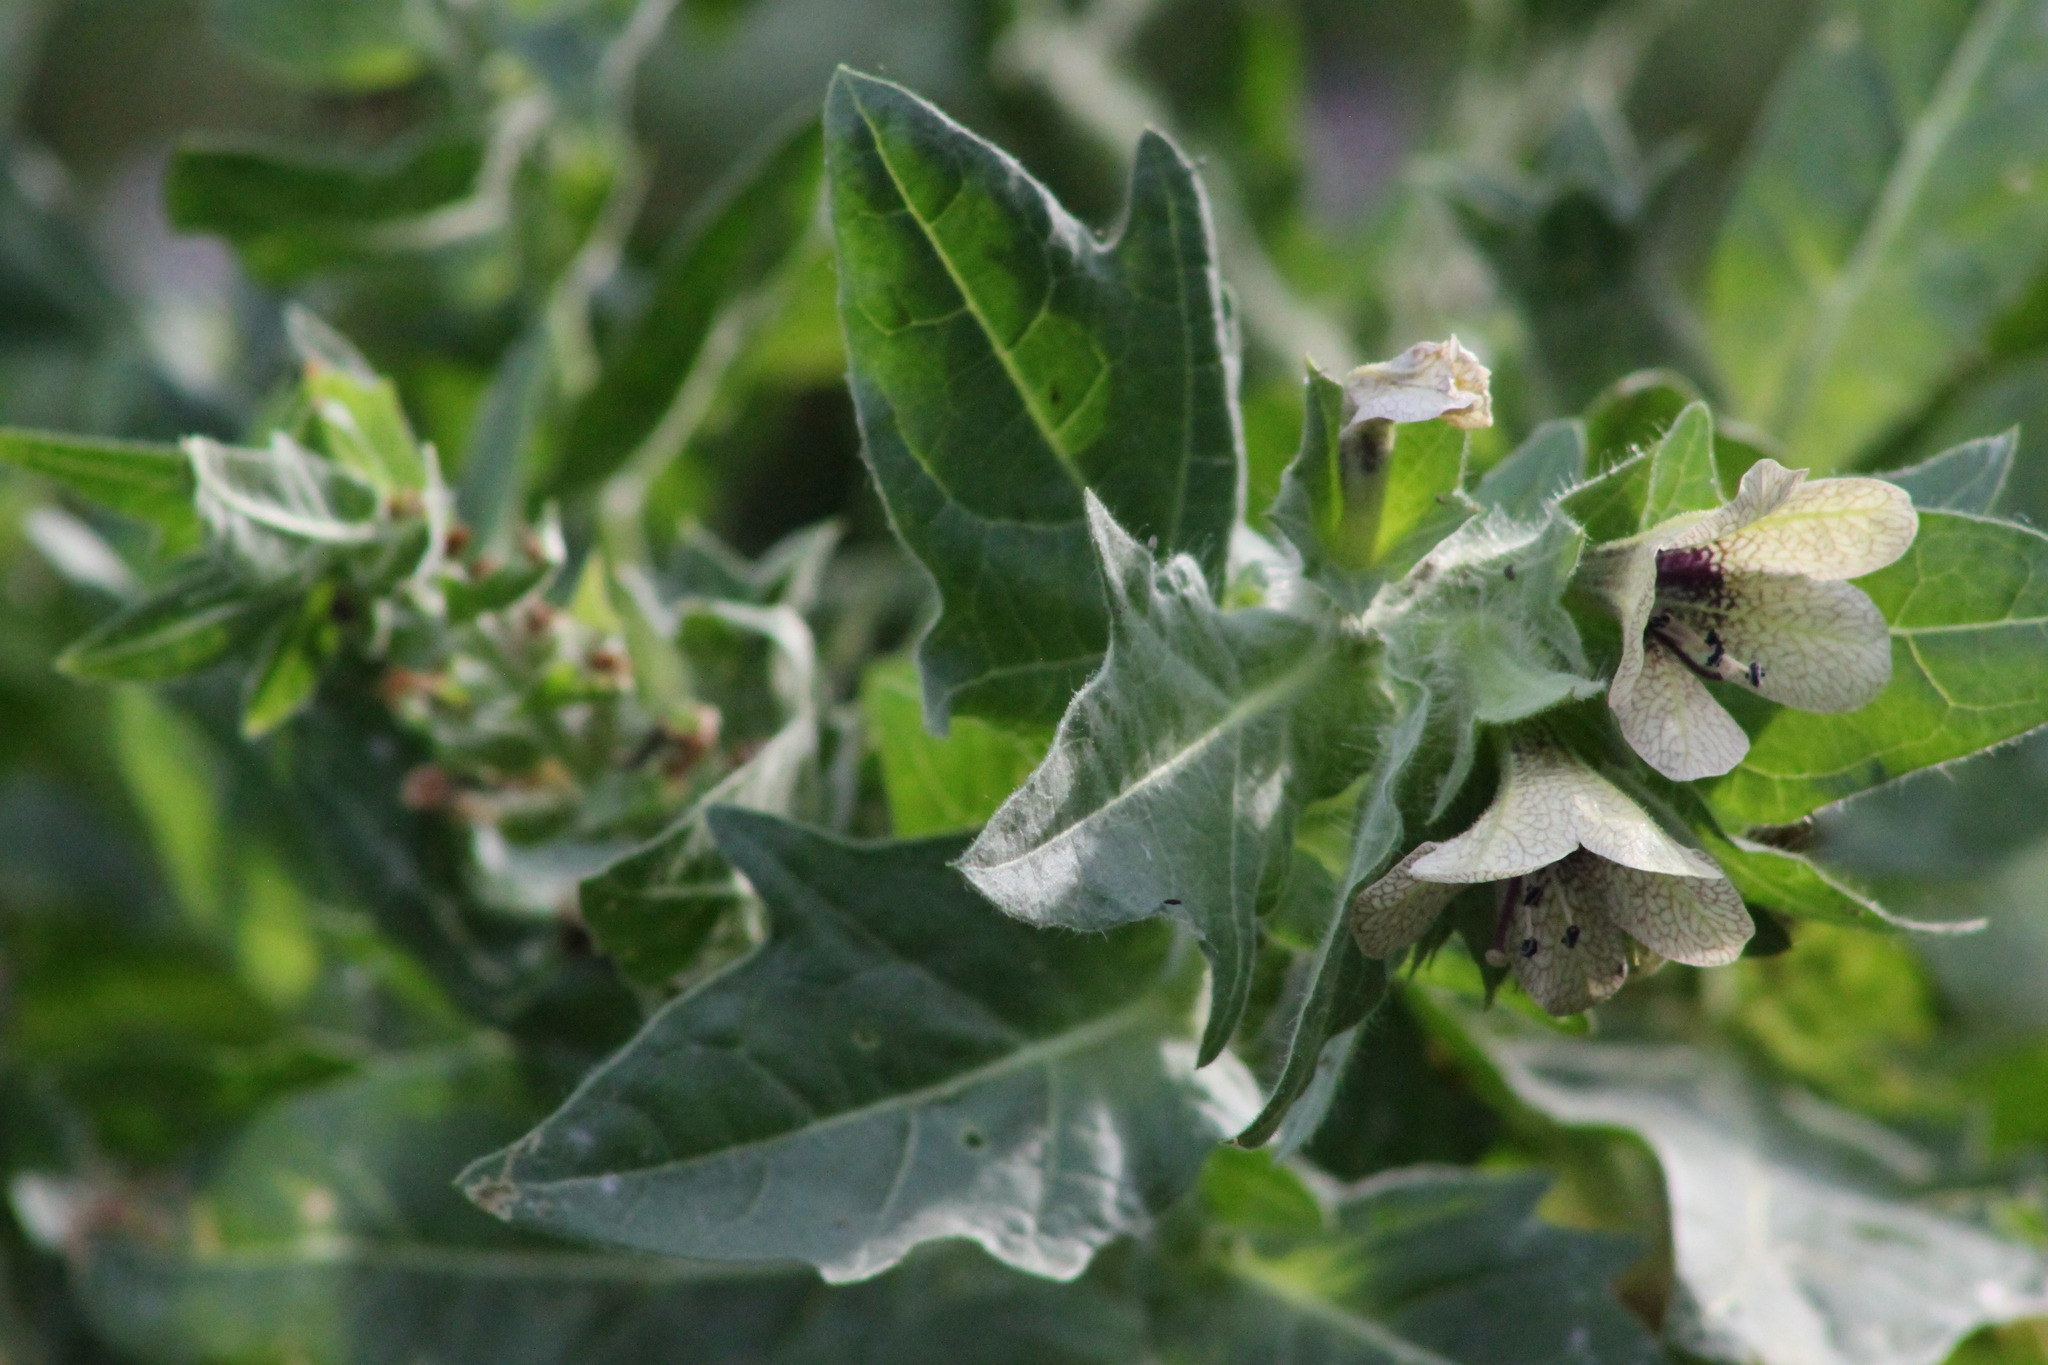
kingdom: Plantae
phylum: Tracheophyta
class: Magnoliopsida
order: Solanales
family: Solanaceae
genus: Hyoscyamus
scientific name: Hyoscyamus niger
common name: Henbane
